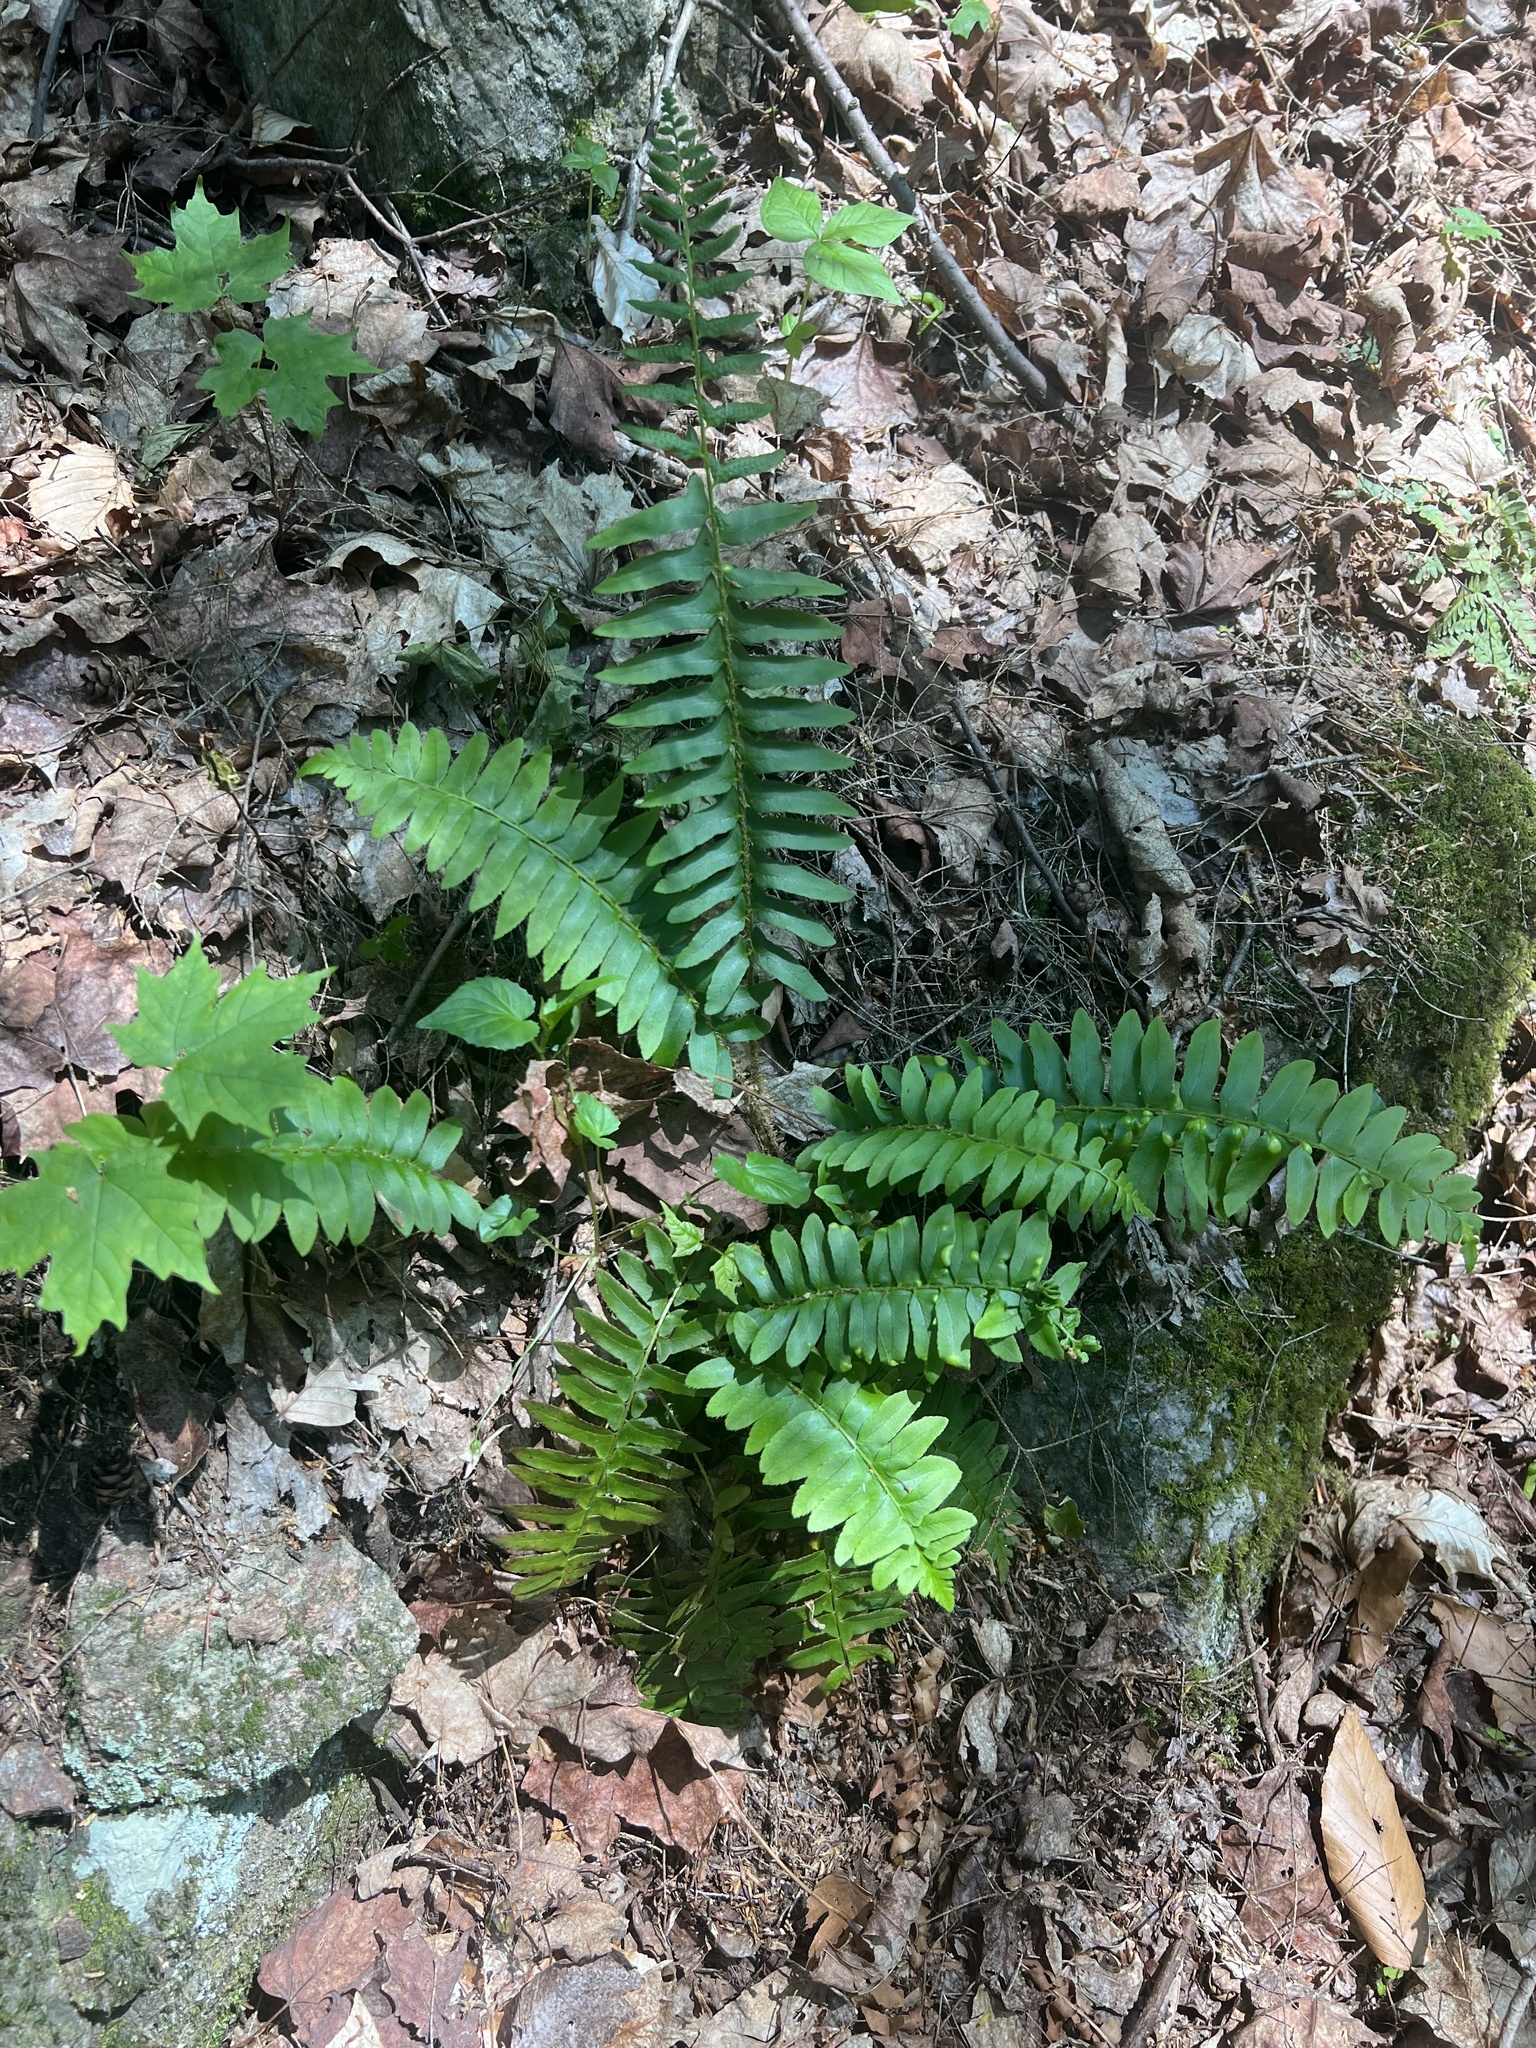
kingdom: Plantae
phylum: Tracheophyta
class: Polypodiopsida
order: Polypodiales
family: Dryopteridaceae
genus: Polystichum
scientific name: Polystichum acrostichoides
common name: Christmas fern
